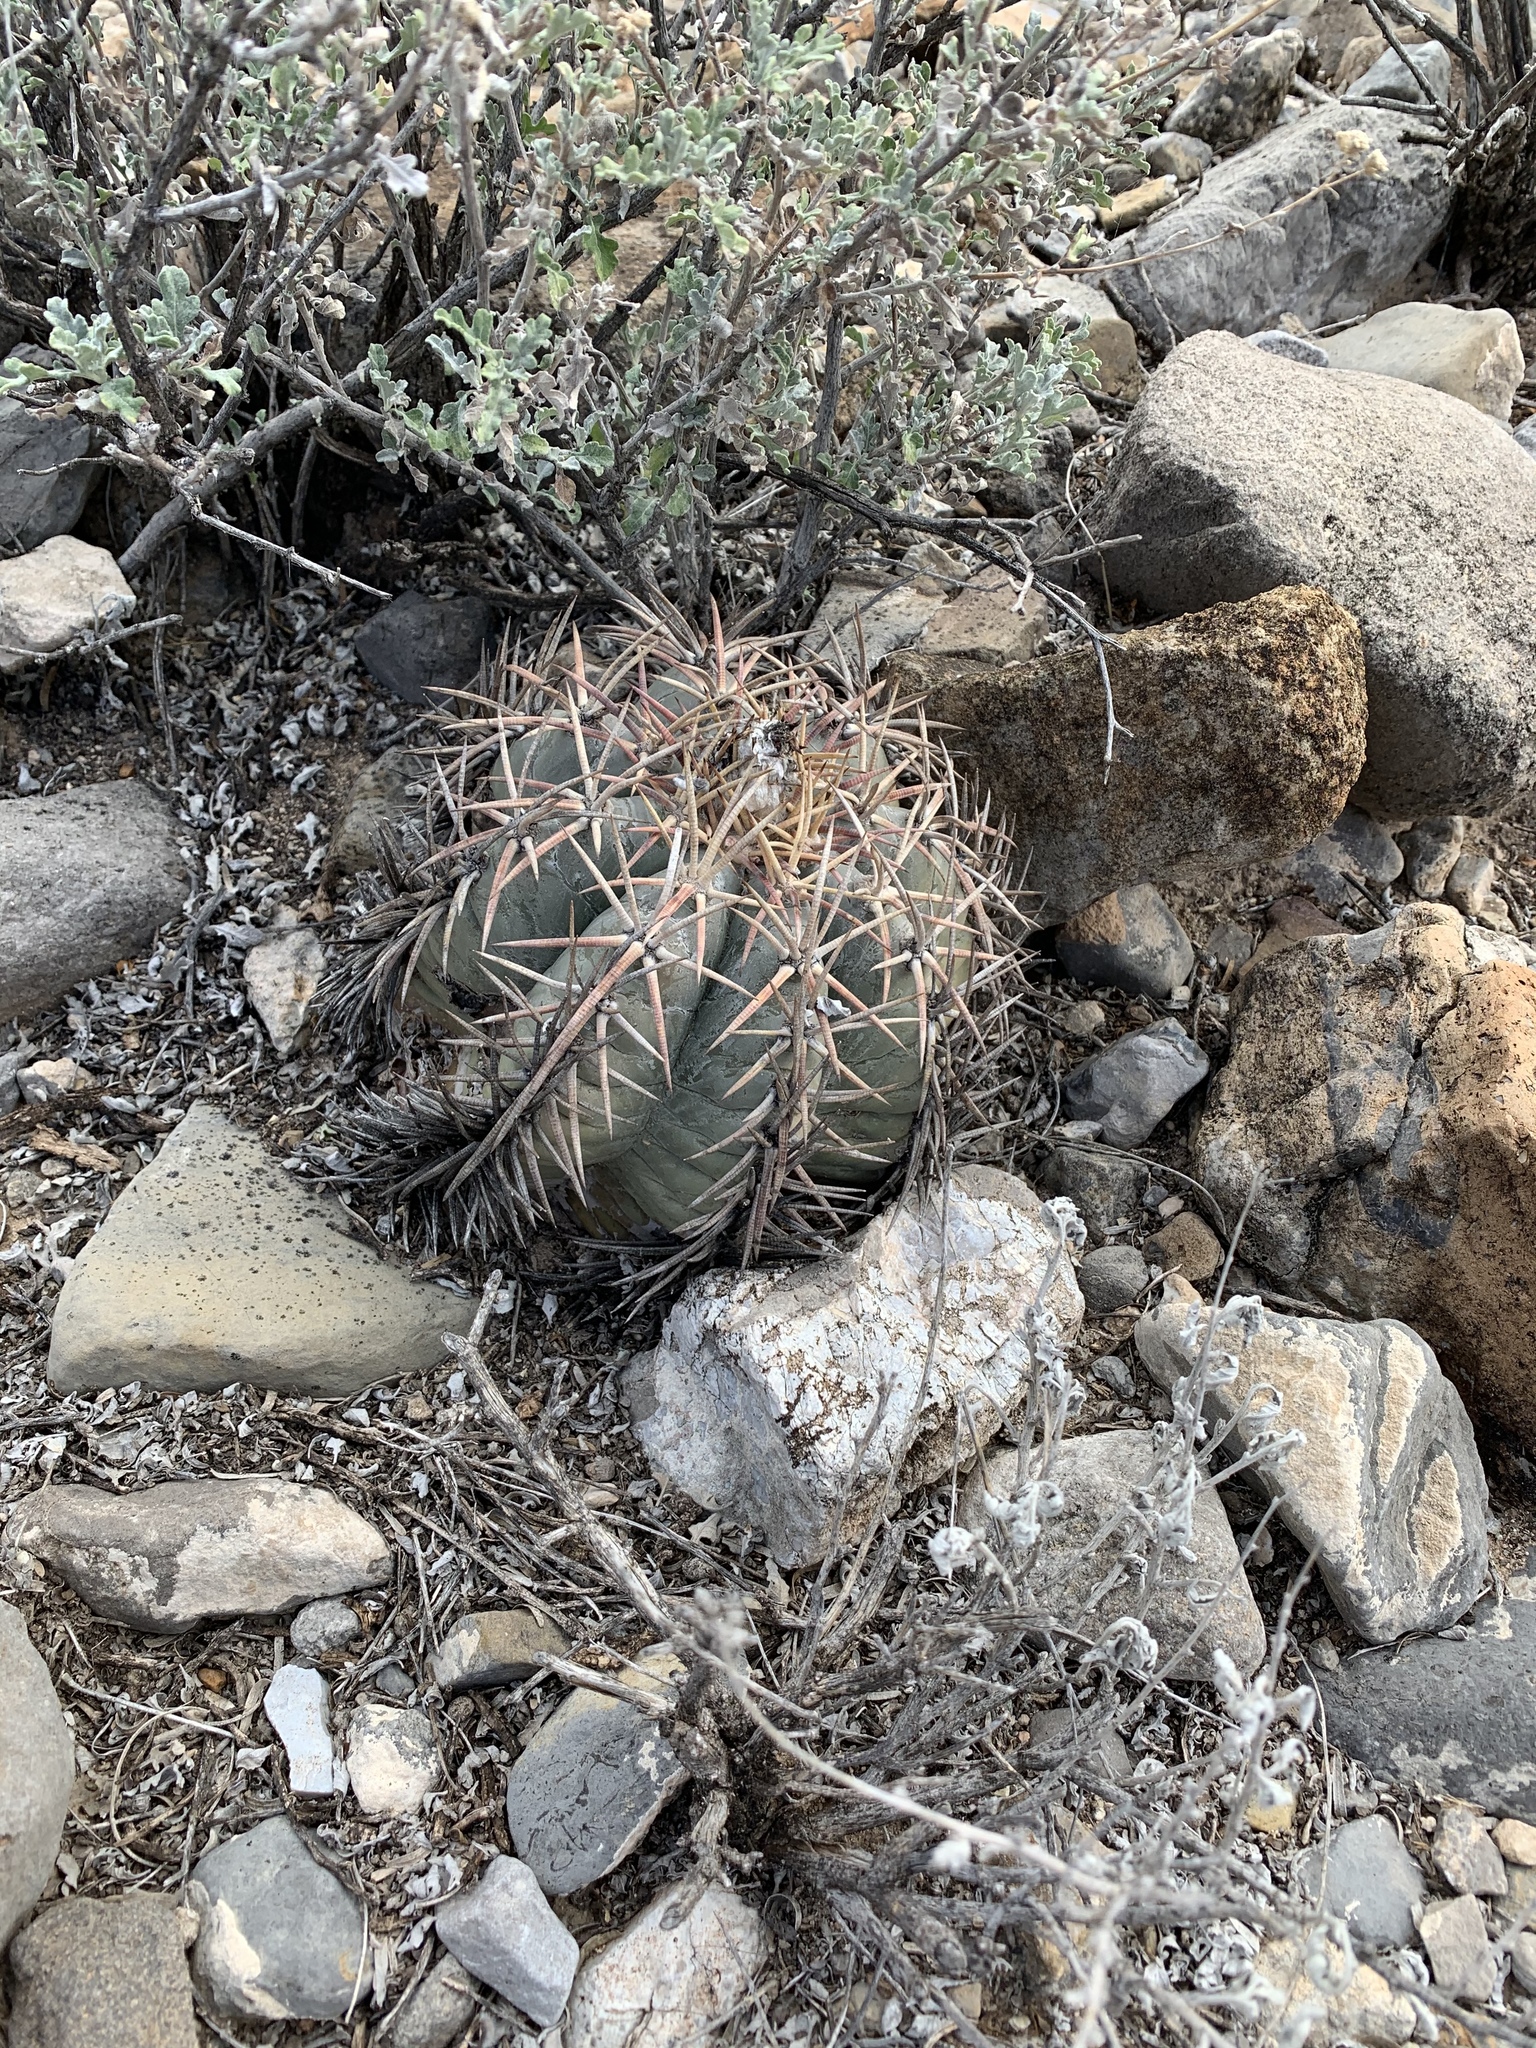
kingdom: Plantae
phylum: Tracheophyta
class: Magnoliopsida
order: Caryophyllales
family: Cactaceae
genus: Echinocactus
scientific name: Echinocactus horizonthalonius
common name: Devilshead
